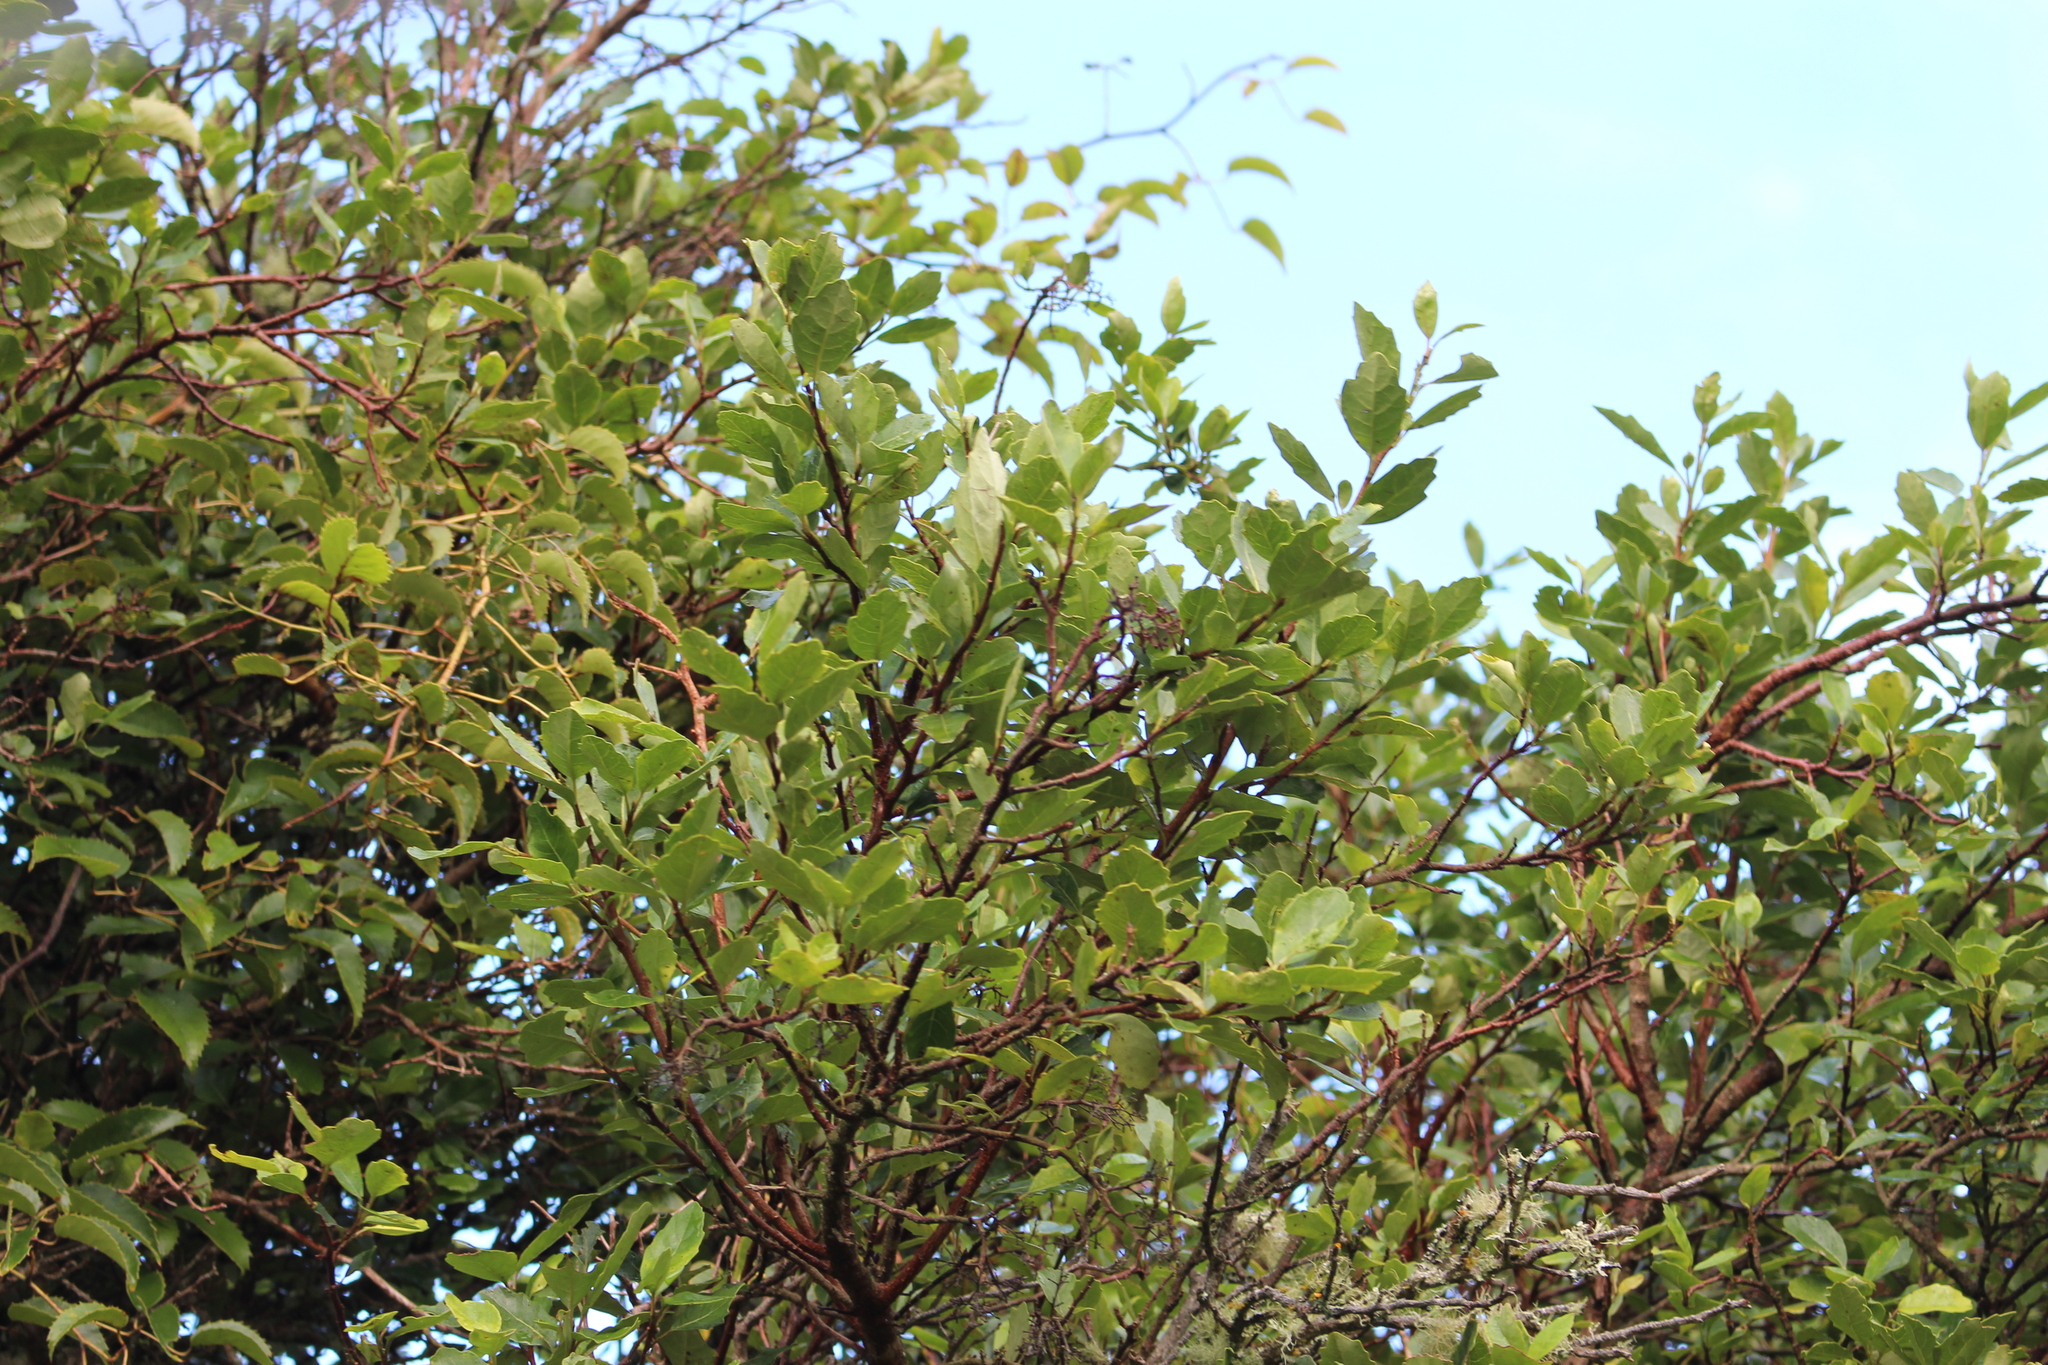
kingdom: Plantae
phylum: Tracheophyta
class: Magnoliopsida
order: Apiales
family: Pennantiaceae
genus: Pennantia
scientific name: Pennantia corymbosa
